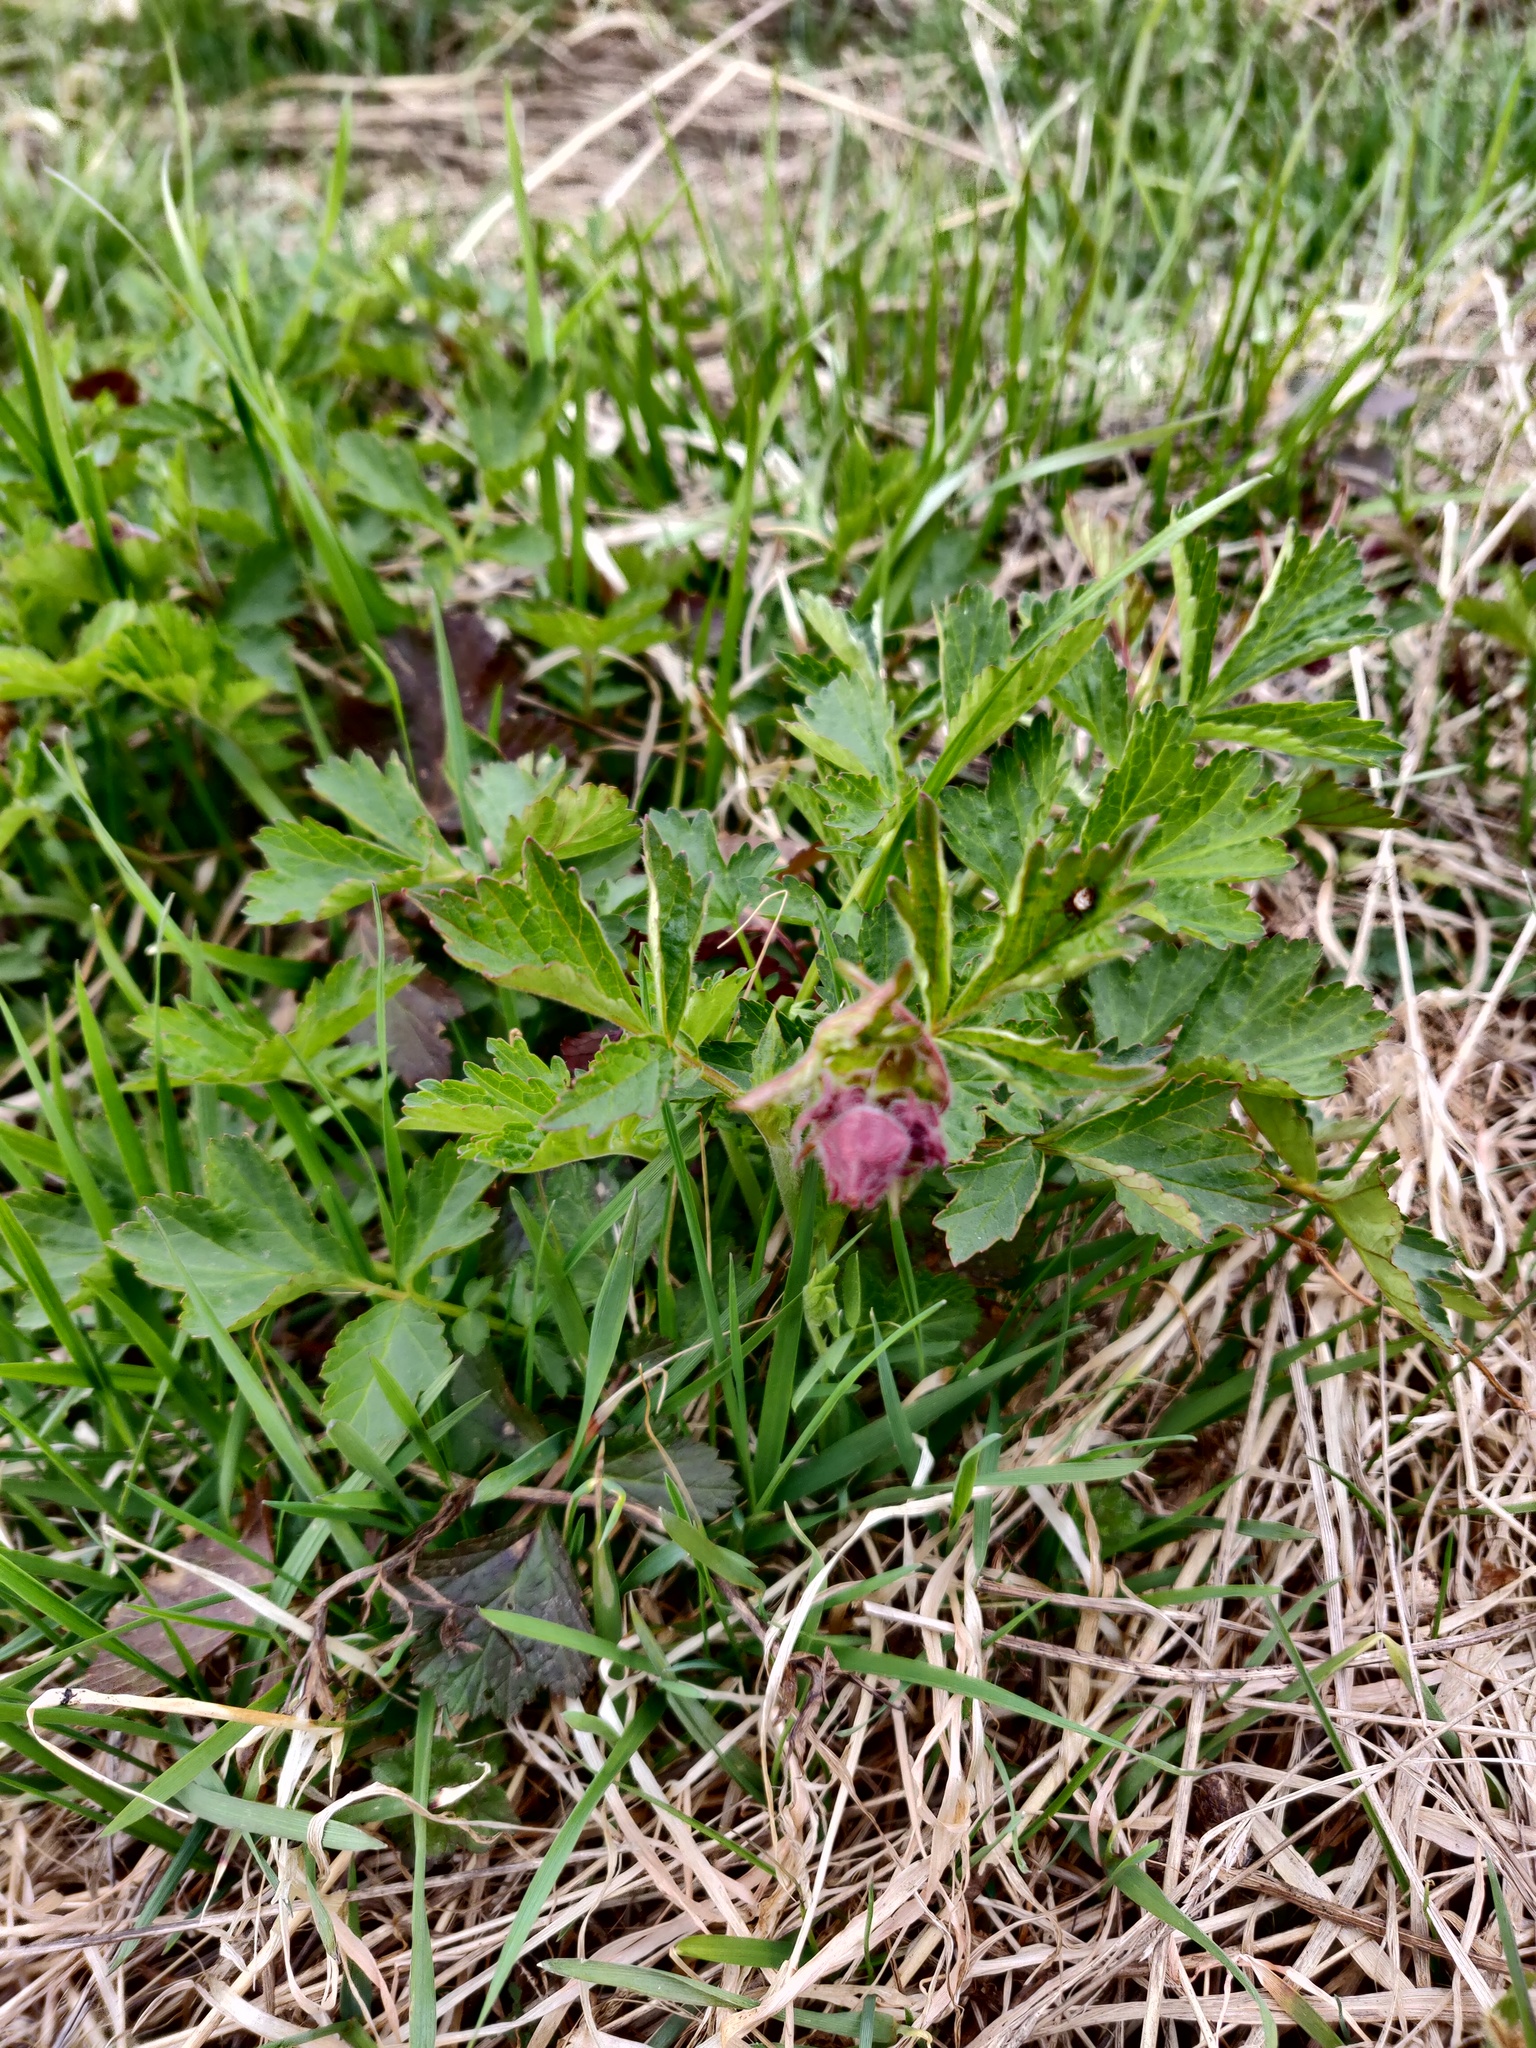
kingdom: Plantae
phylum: Tracheophyta
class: Magnoliopsida
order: Rosales
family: Rosaceae
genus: Geum
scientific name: Geum rivale
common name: Water avens
